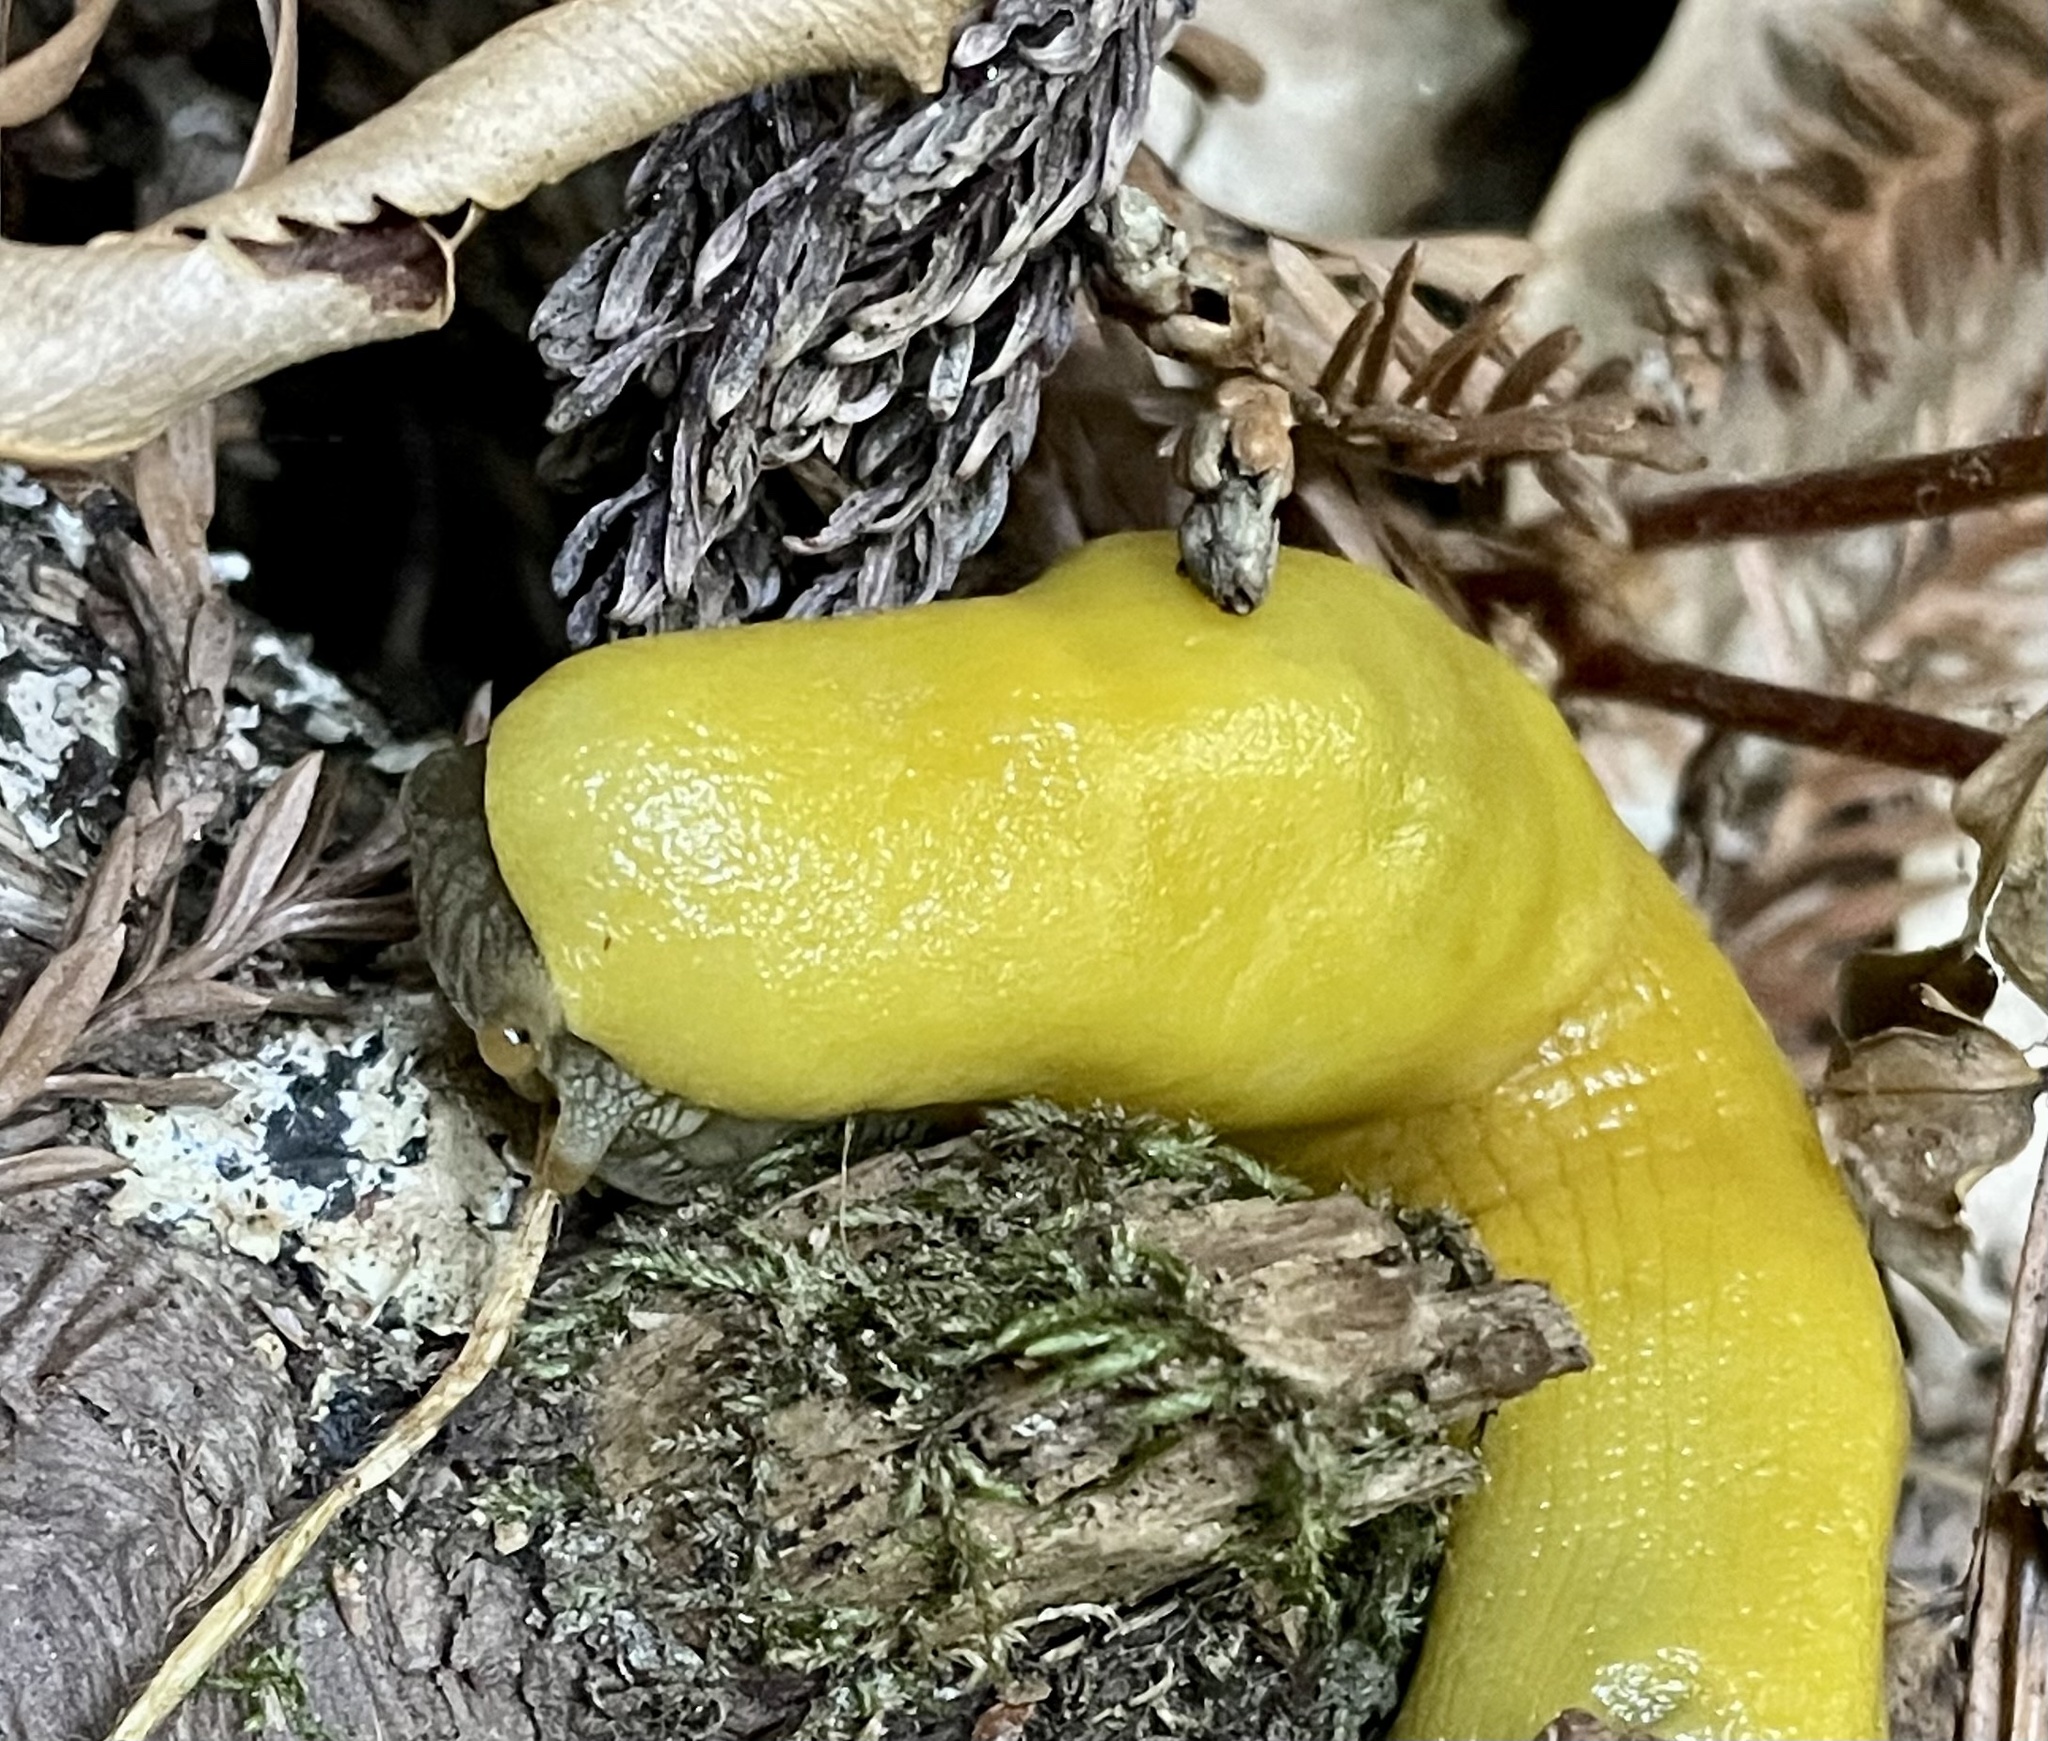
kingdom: Animalia
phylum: Mollusca
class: Gastropoda
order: Stylommatophora
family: Ariolimacidae
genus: Ariolimax
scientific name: Ariolimax dolichophallus
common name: Slender banana slug
